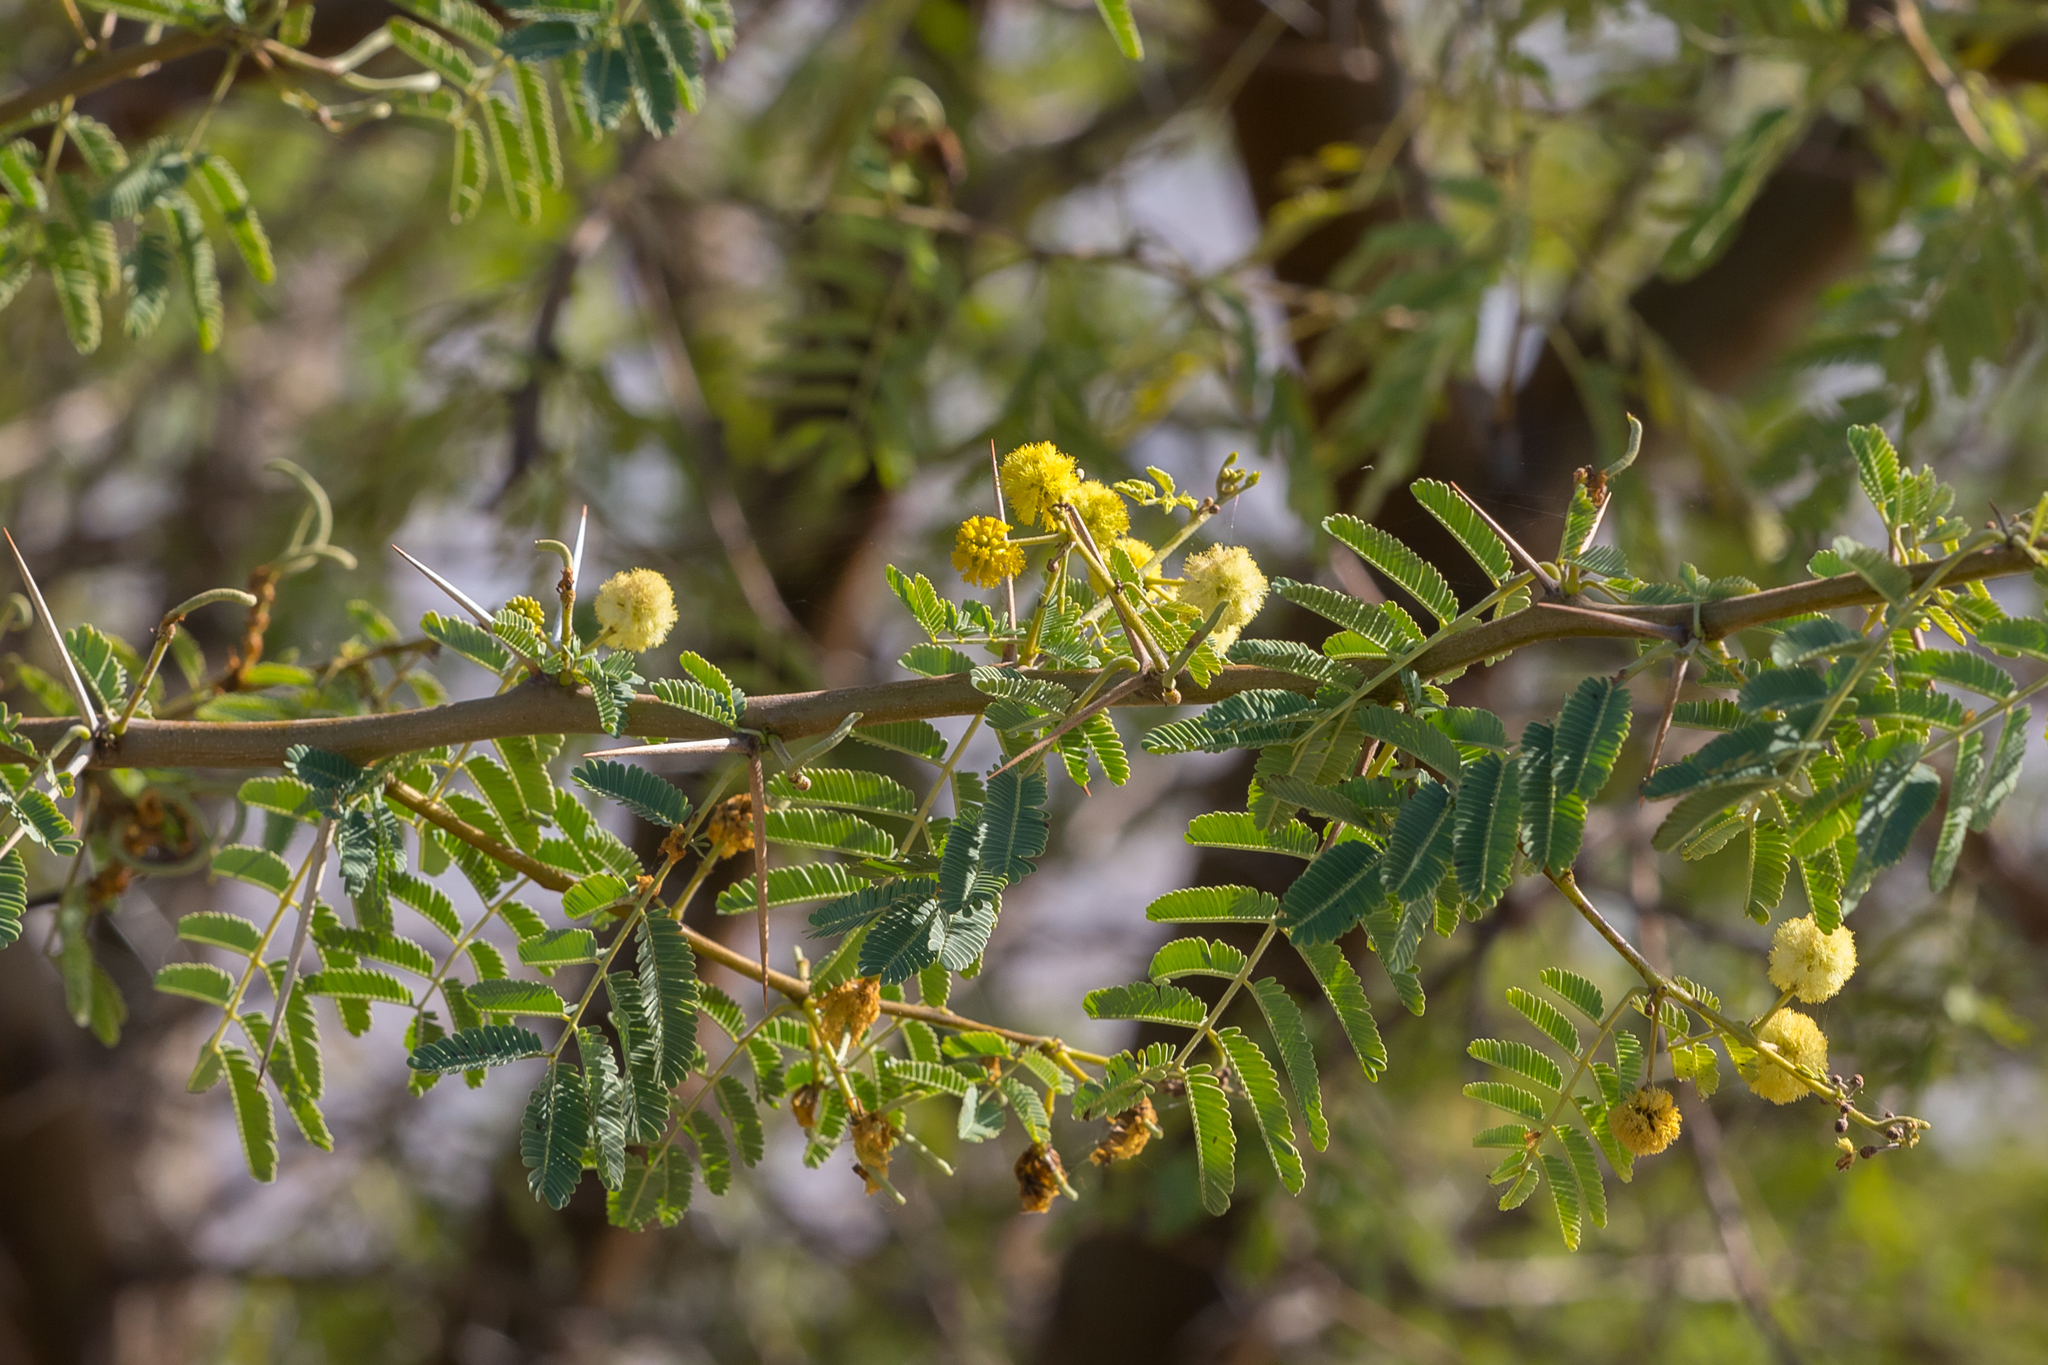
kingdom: Plantae
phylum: Tracheophyta
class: Magnoliopsida
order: Fabales
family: Fabaceae
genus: Vachellia
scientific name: Vachellia nilotica
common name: Arabic gumtree
